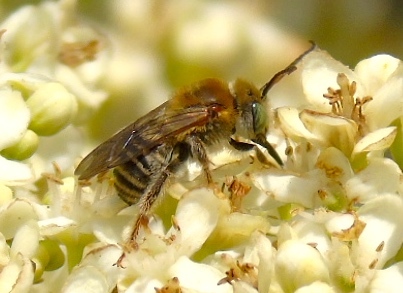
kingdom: Animalia
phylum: Arthropoda
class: Insecta
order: Hymenoptera
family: Apidae
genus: Melissodes
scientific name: Melissodes
